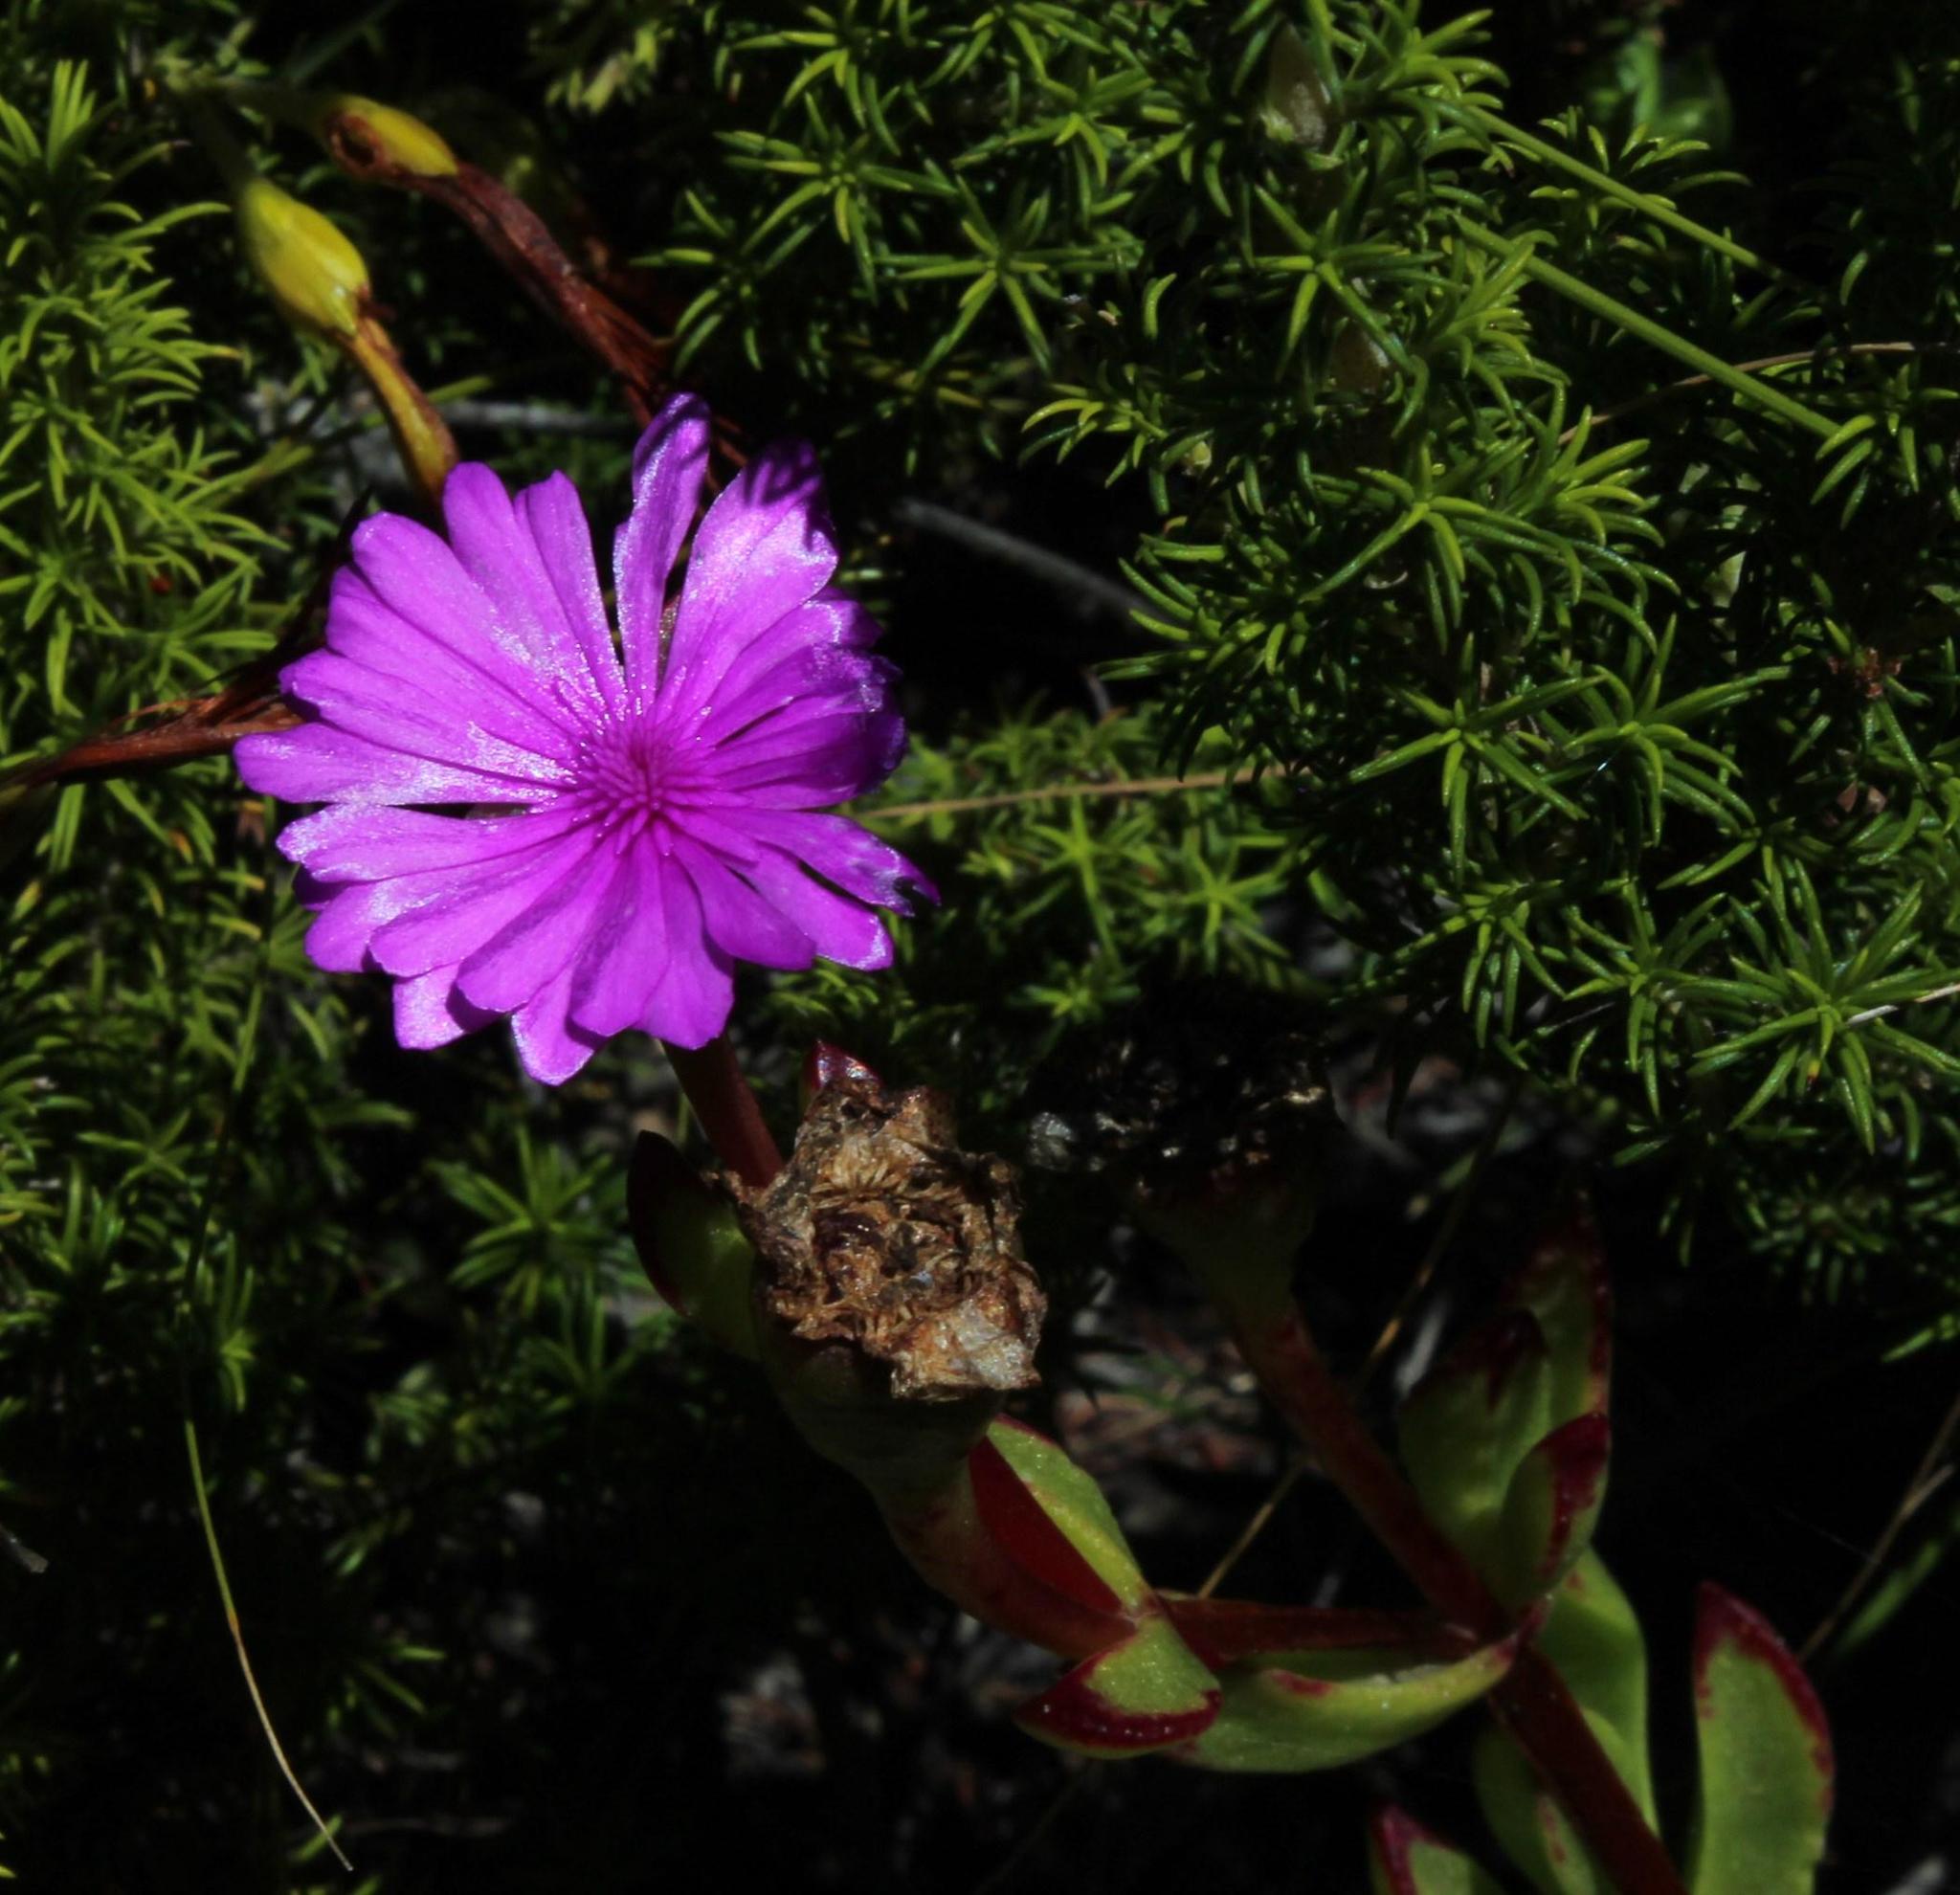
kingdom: Plantae
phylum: Tracheophyta
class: Magnoliopsida
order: Caryophyllales
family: Aizoaceae
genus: Erepsia
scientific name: Erepsia inclaudens
